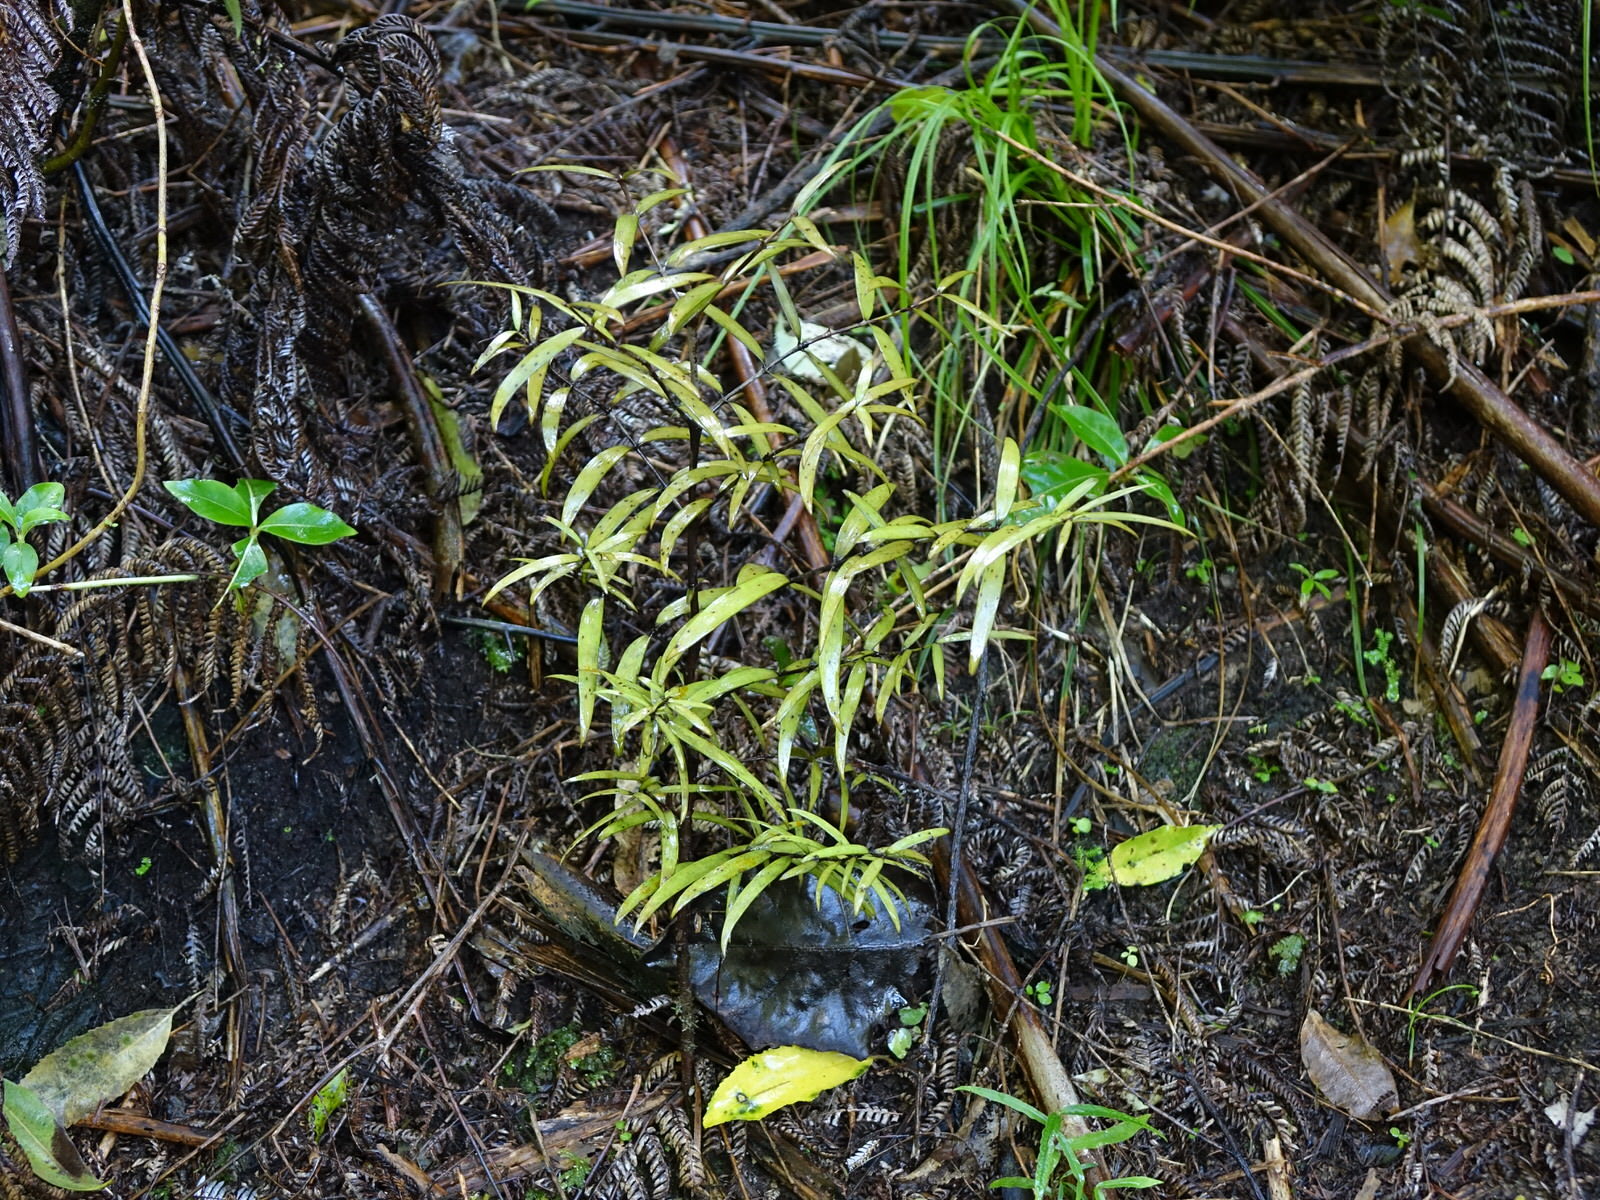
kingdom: Plantae
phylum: Tracheophyta
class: Pinopsida
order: Pinales
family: Araucariaceae
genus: Agathis
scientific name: Agathis australis
